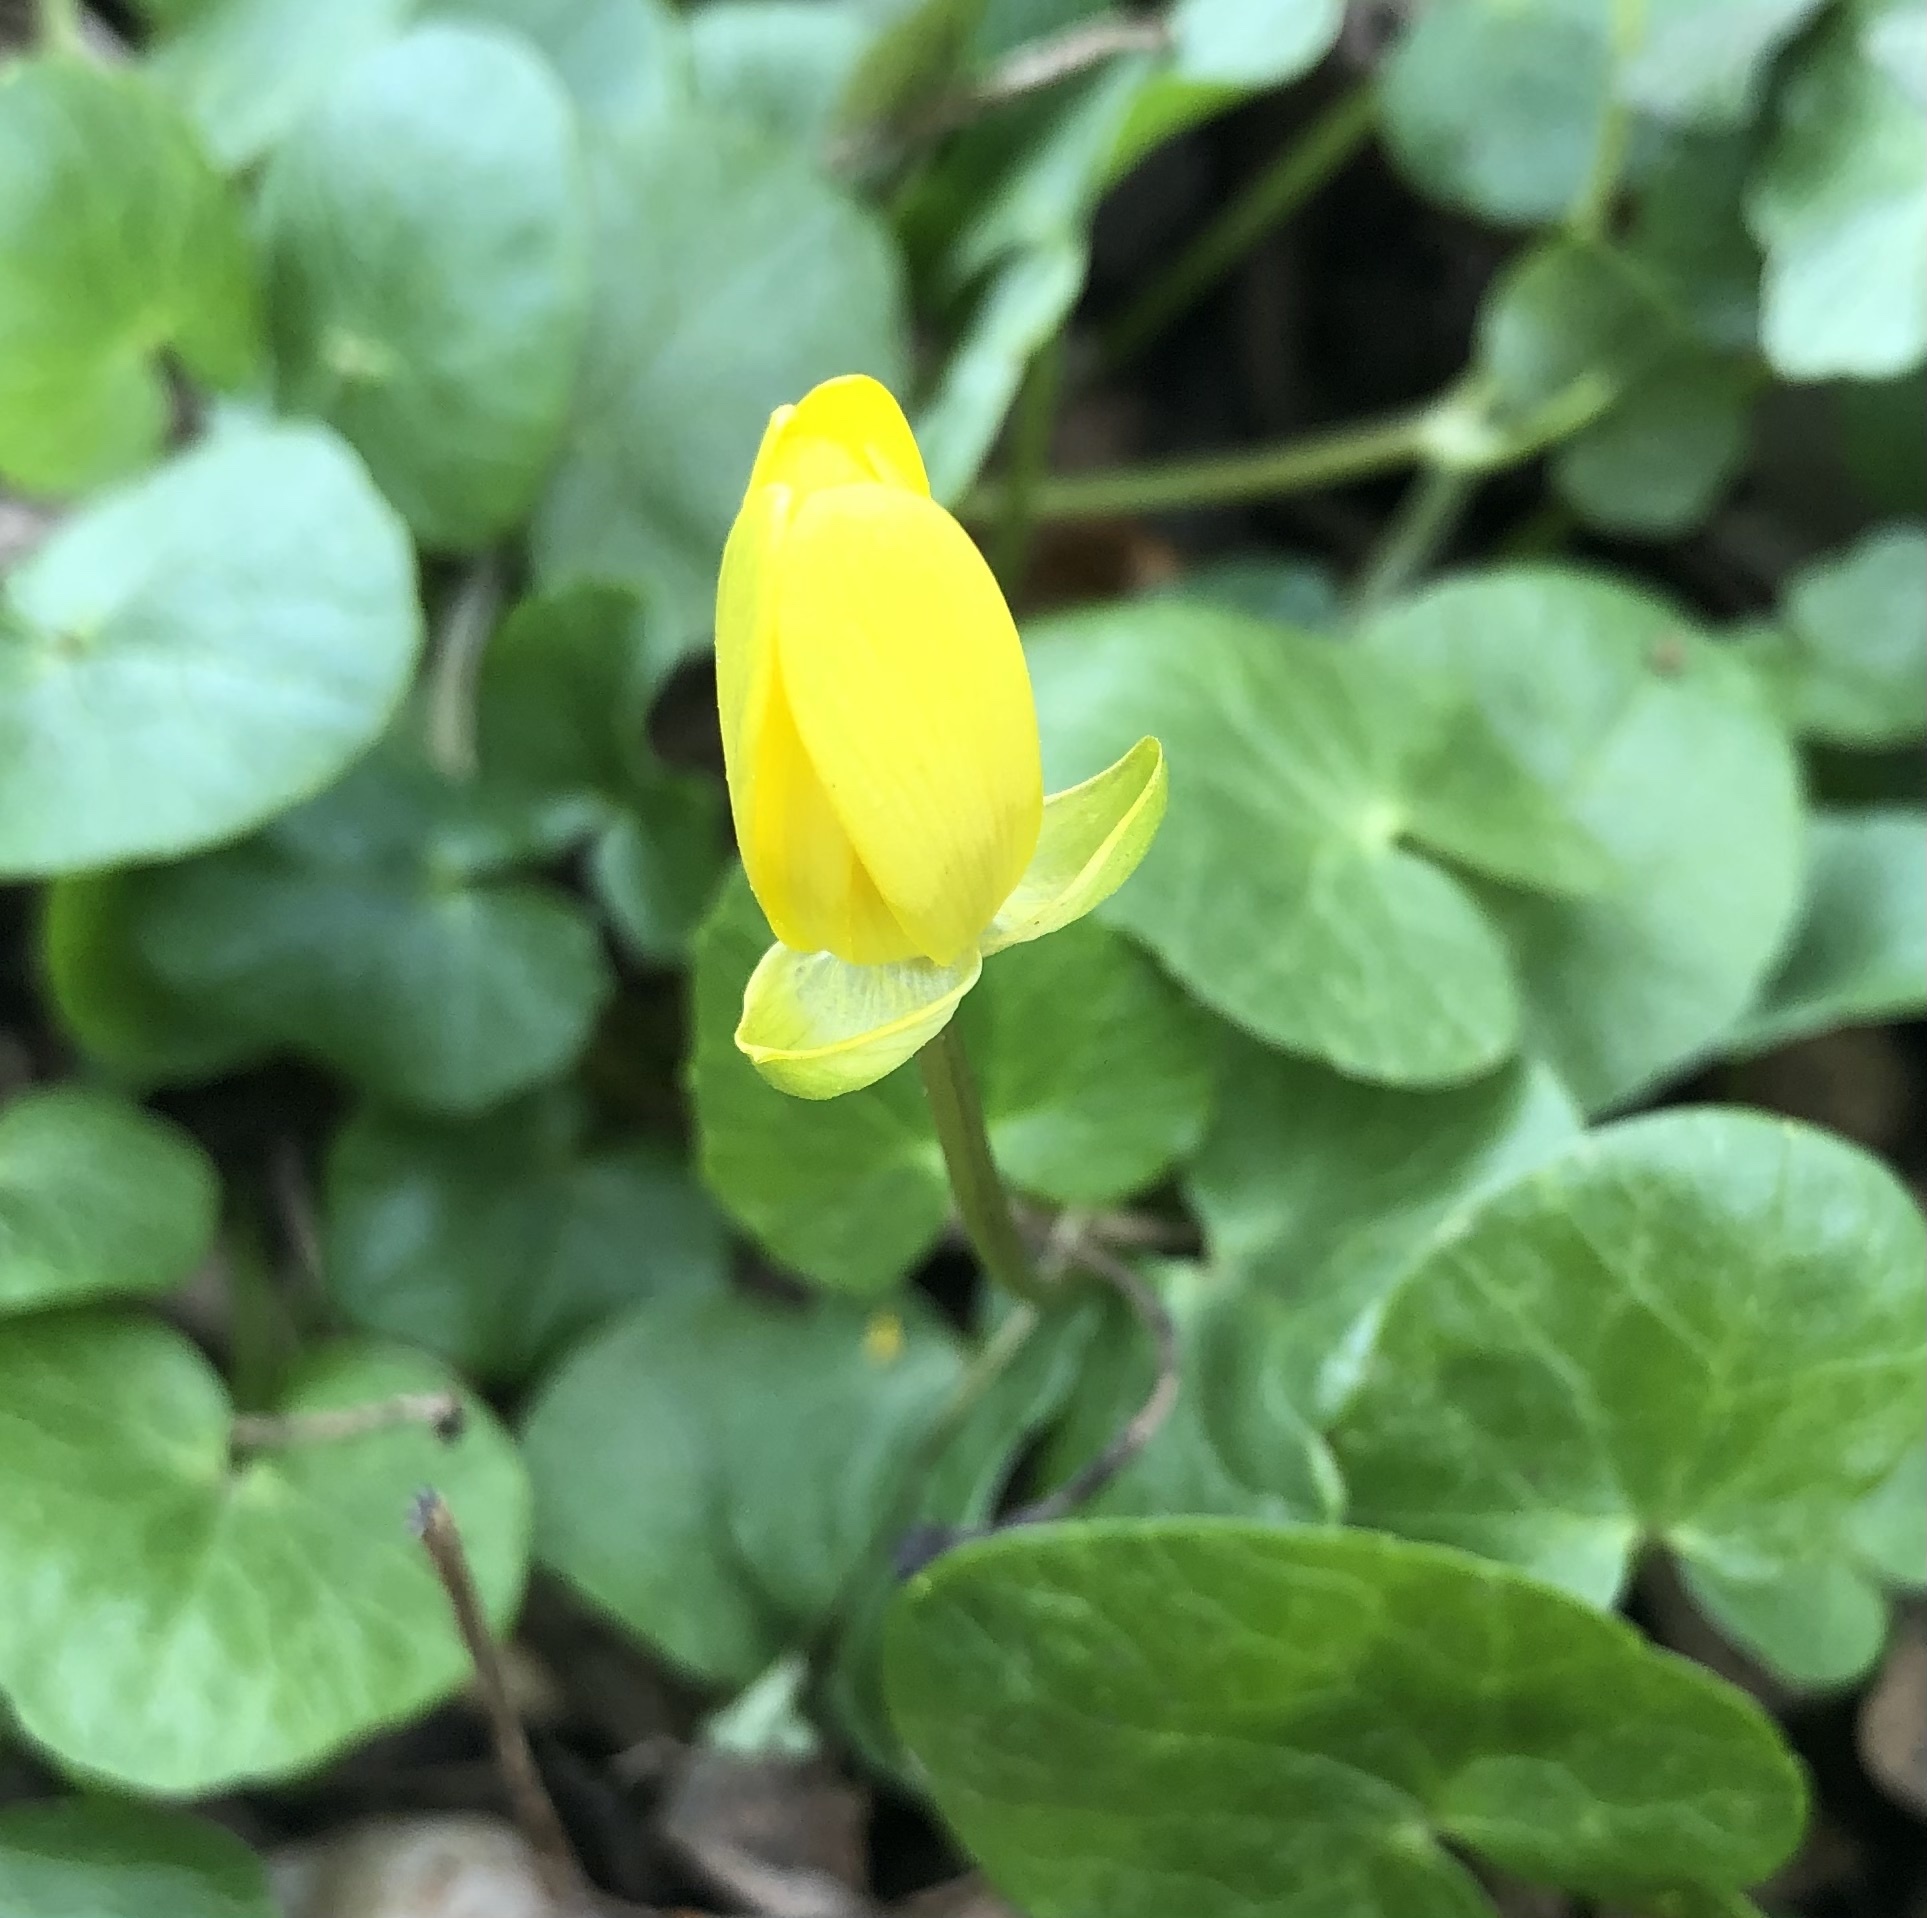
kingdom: Plantae
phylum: Tracheophyta
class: Magnoliopsida
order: Ranunculales
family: Ranunculaceae
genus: Ficaria
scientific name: Ficaria verna
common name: Lesser celandine
